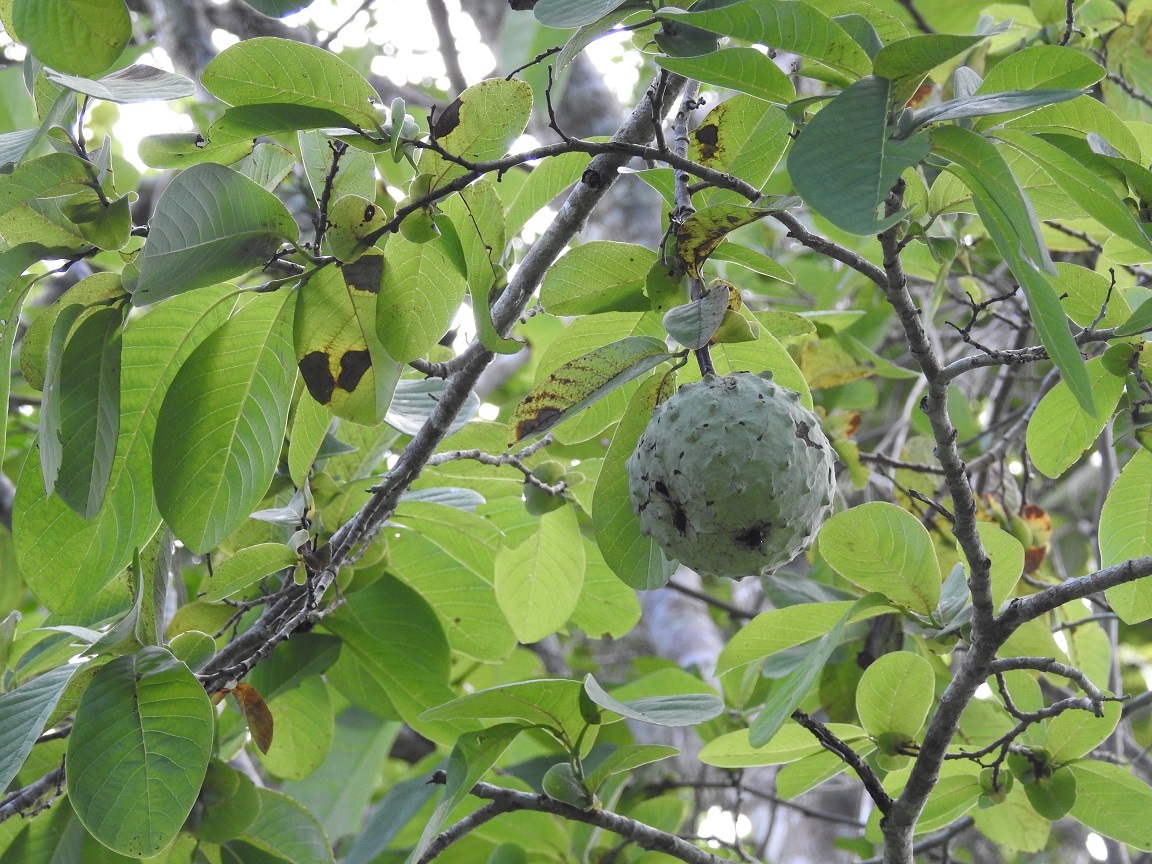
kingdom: Plantae
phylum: Tracheophyta
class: Magnoliopsida
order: Magnoliales
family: Annonaceae
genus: Annona
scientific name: Annona macroprophyllata
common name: Ilama
